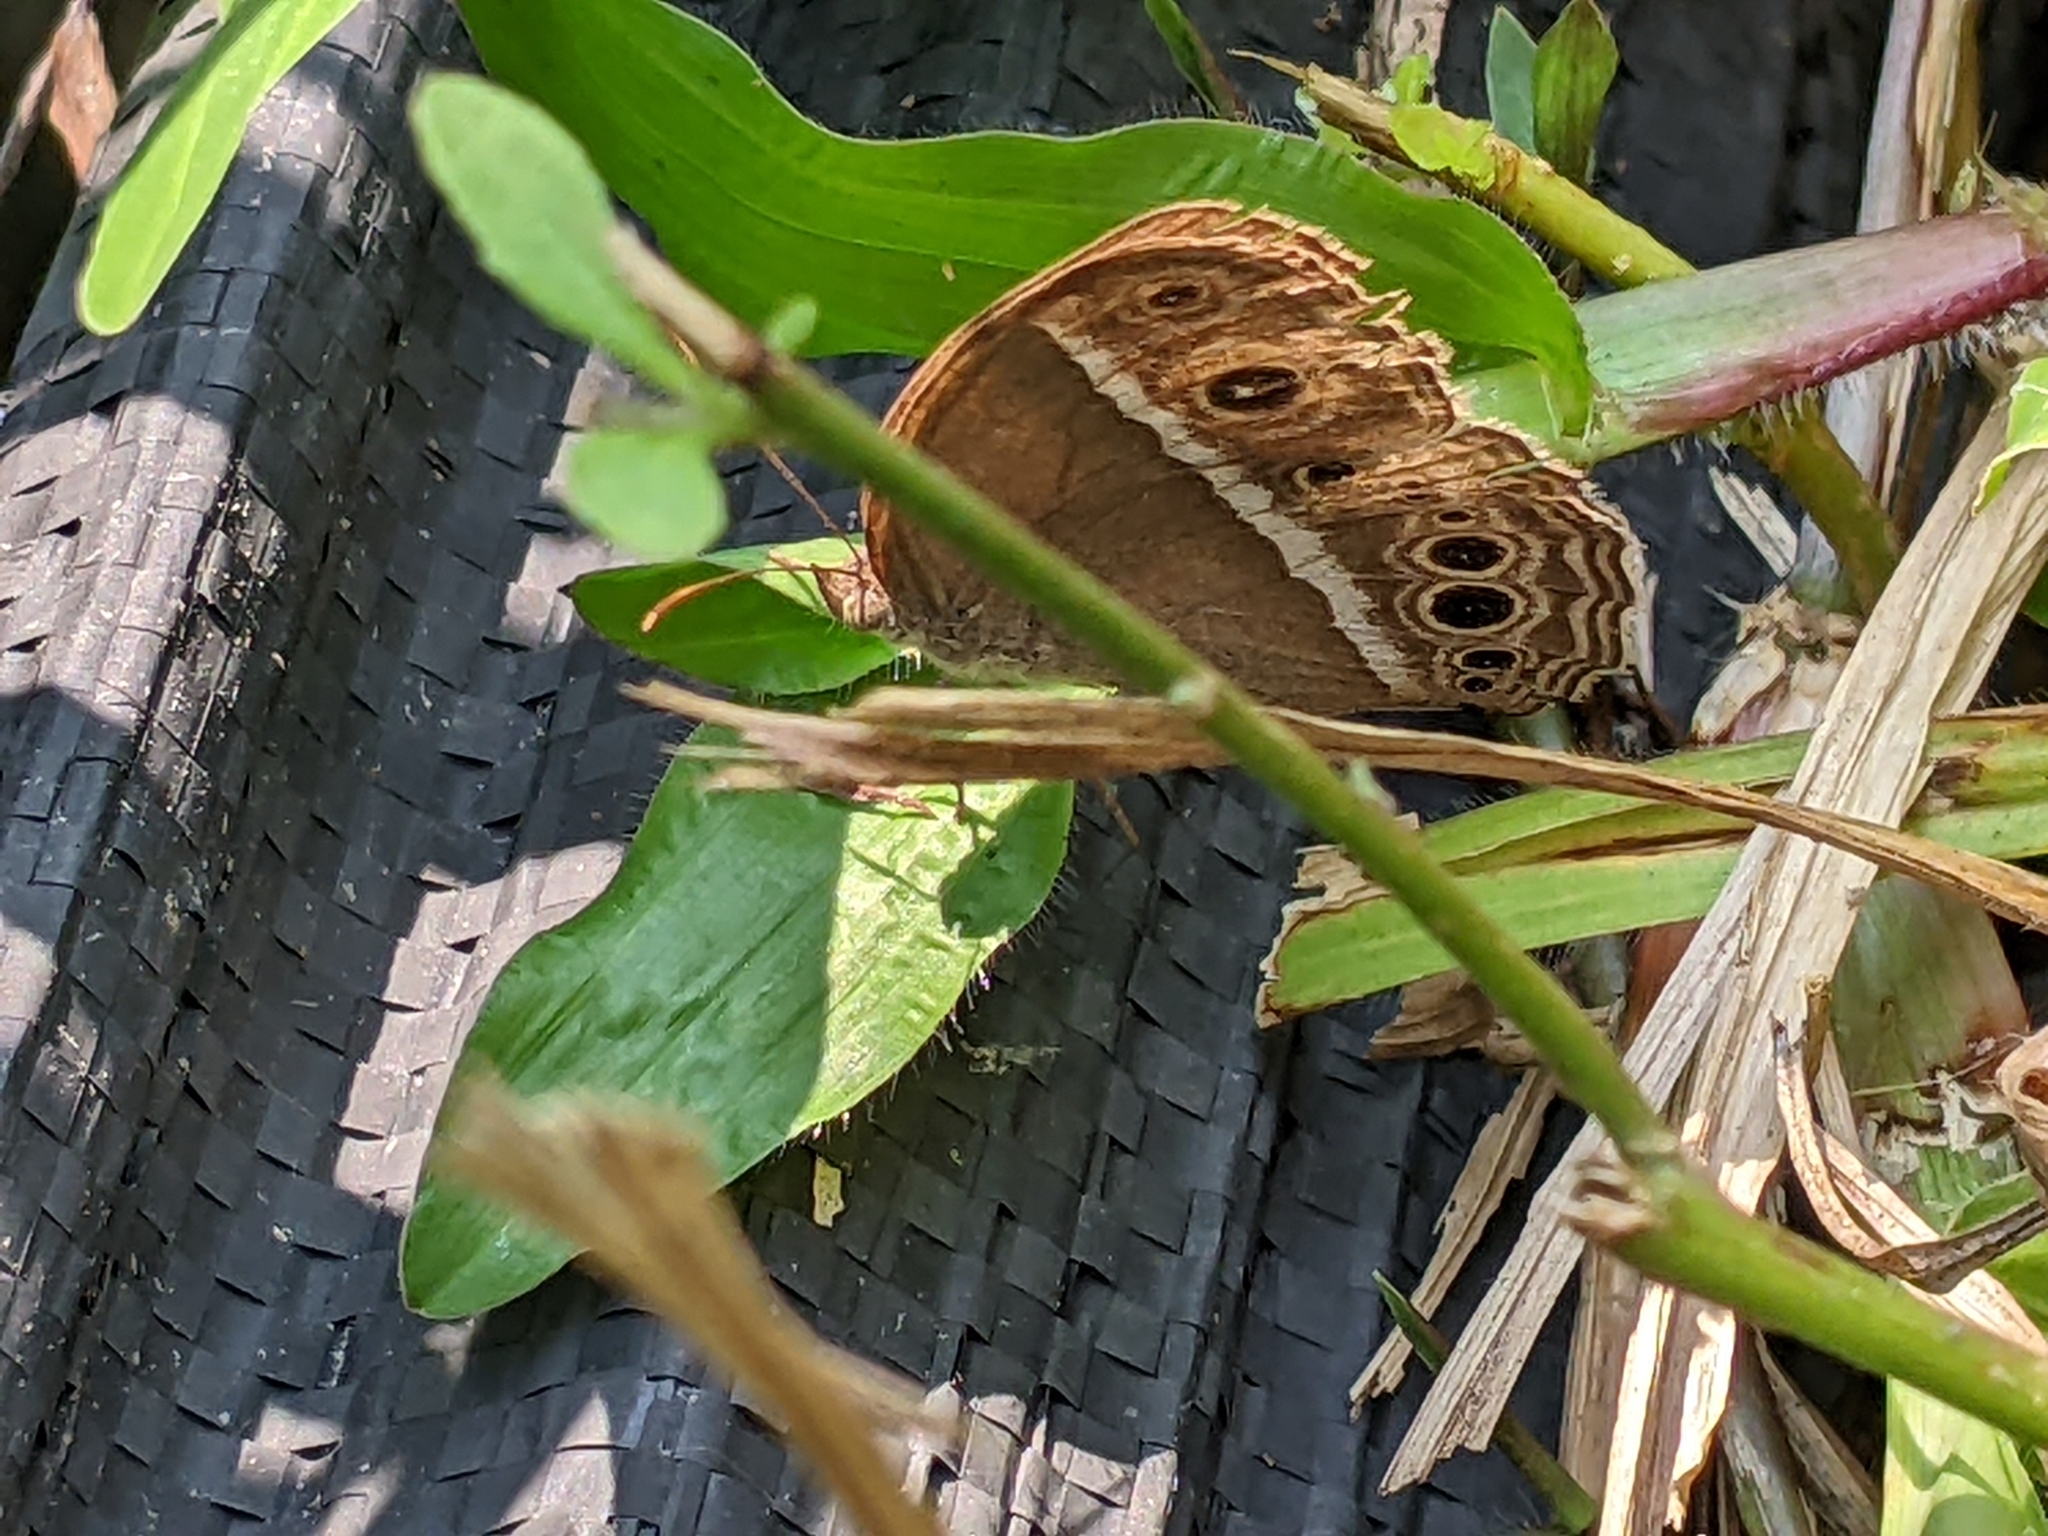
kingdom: Animalia
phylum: Arthropoda
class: Insecta
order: Lepidoptera
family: Nymphalidae
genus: Mycalesis
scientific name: Mycalesis mineus
